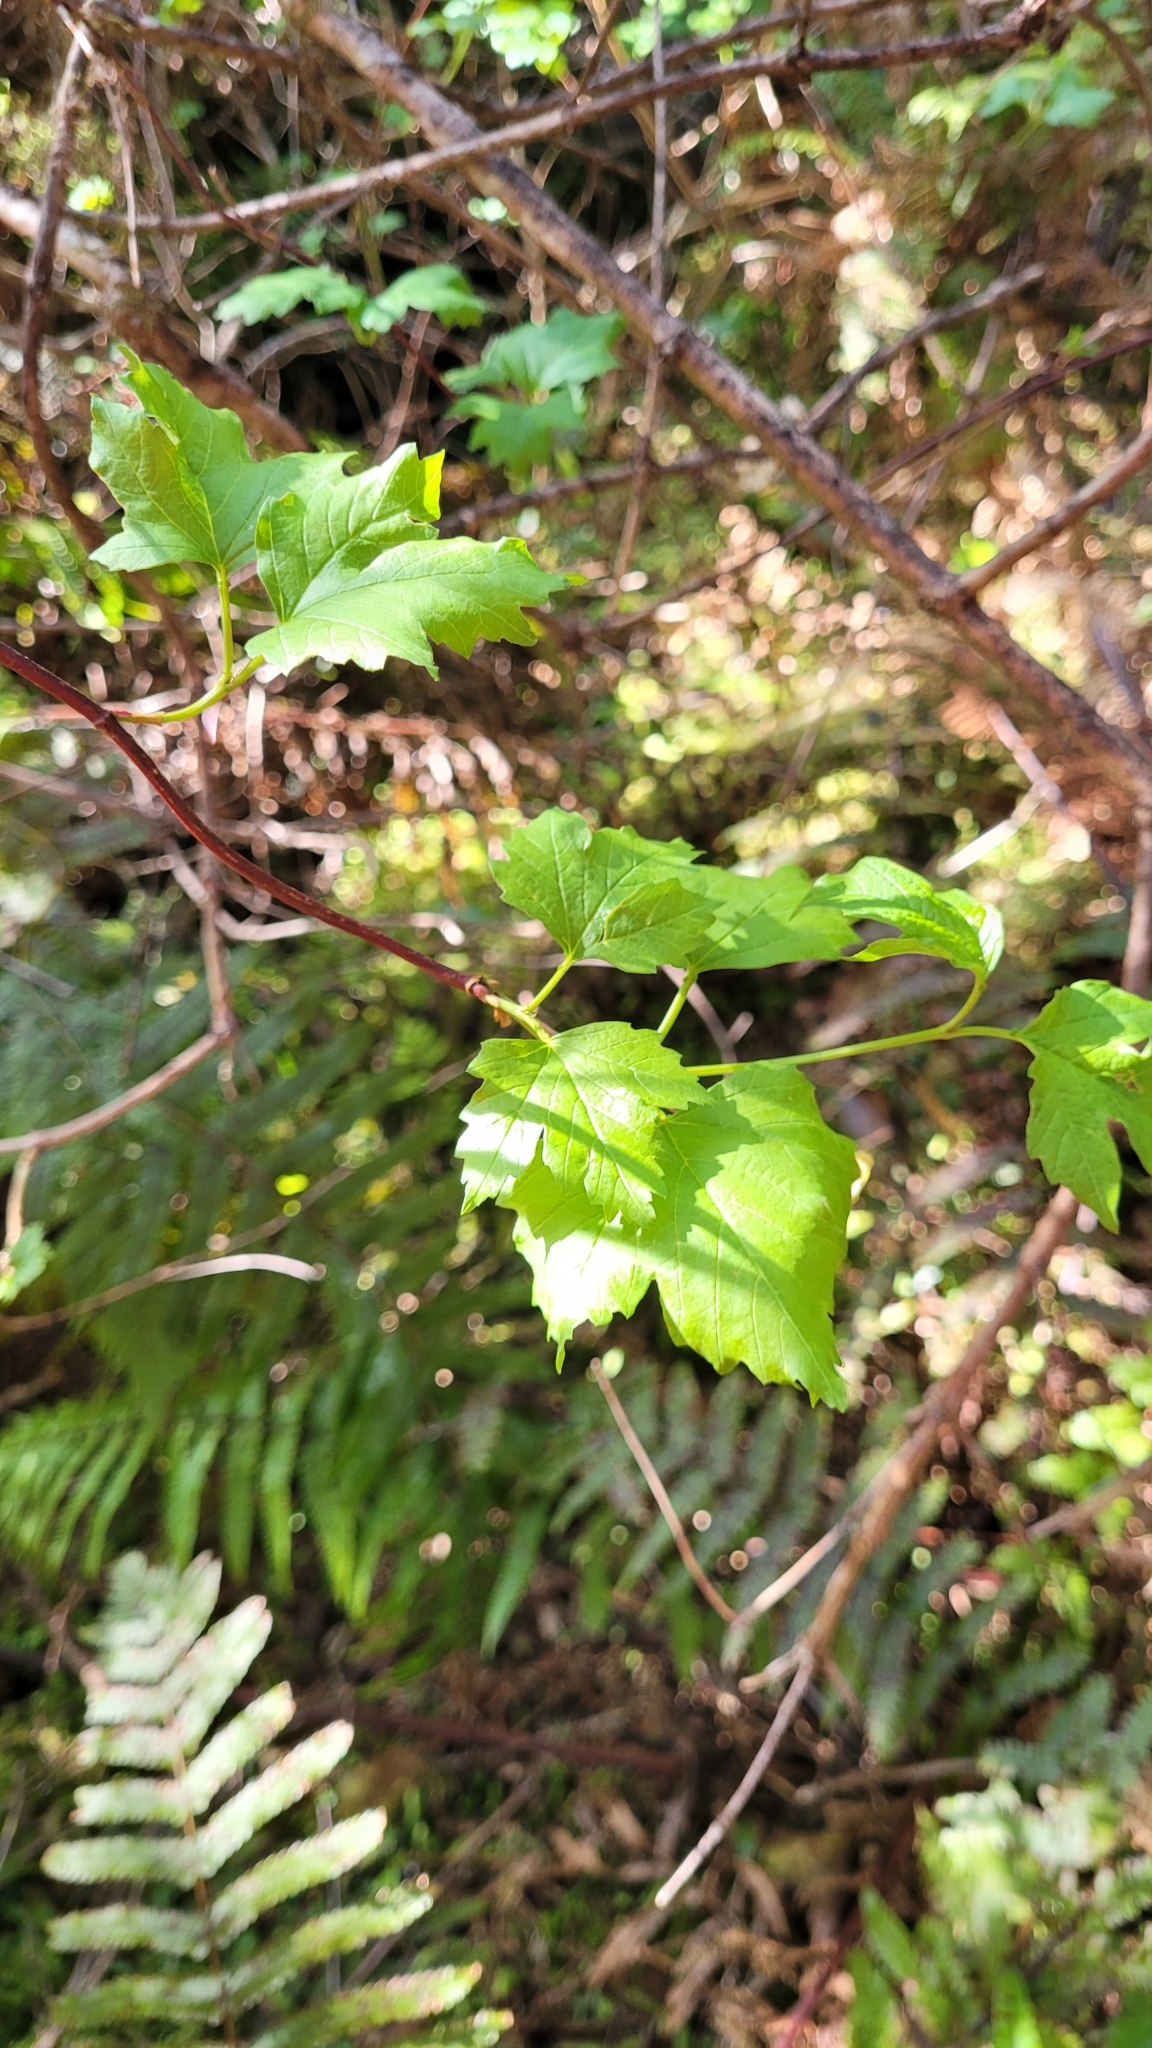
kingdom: Plantae
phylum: Tracheophyta
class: Magnoliopsida
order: Sapindales
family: Sapindaceae
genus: Acer
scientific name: Acer pseudoplatanus
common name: Sycamore
